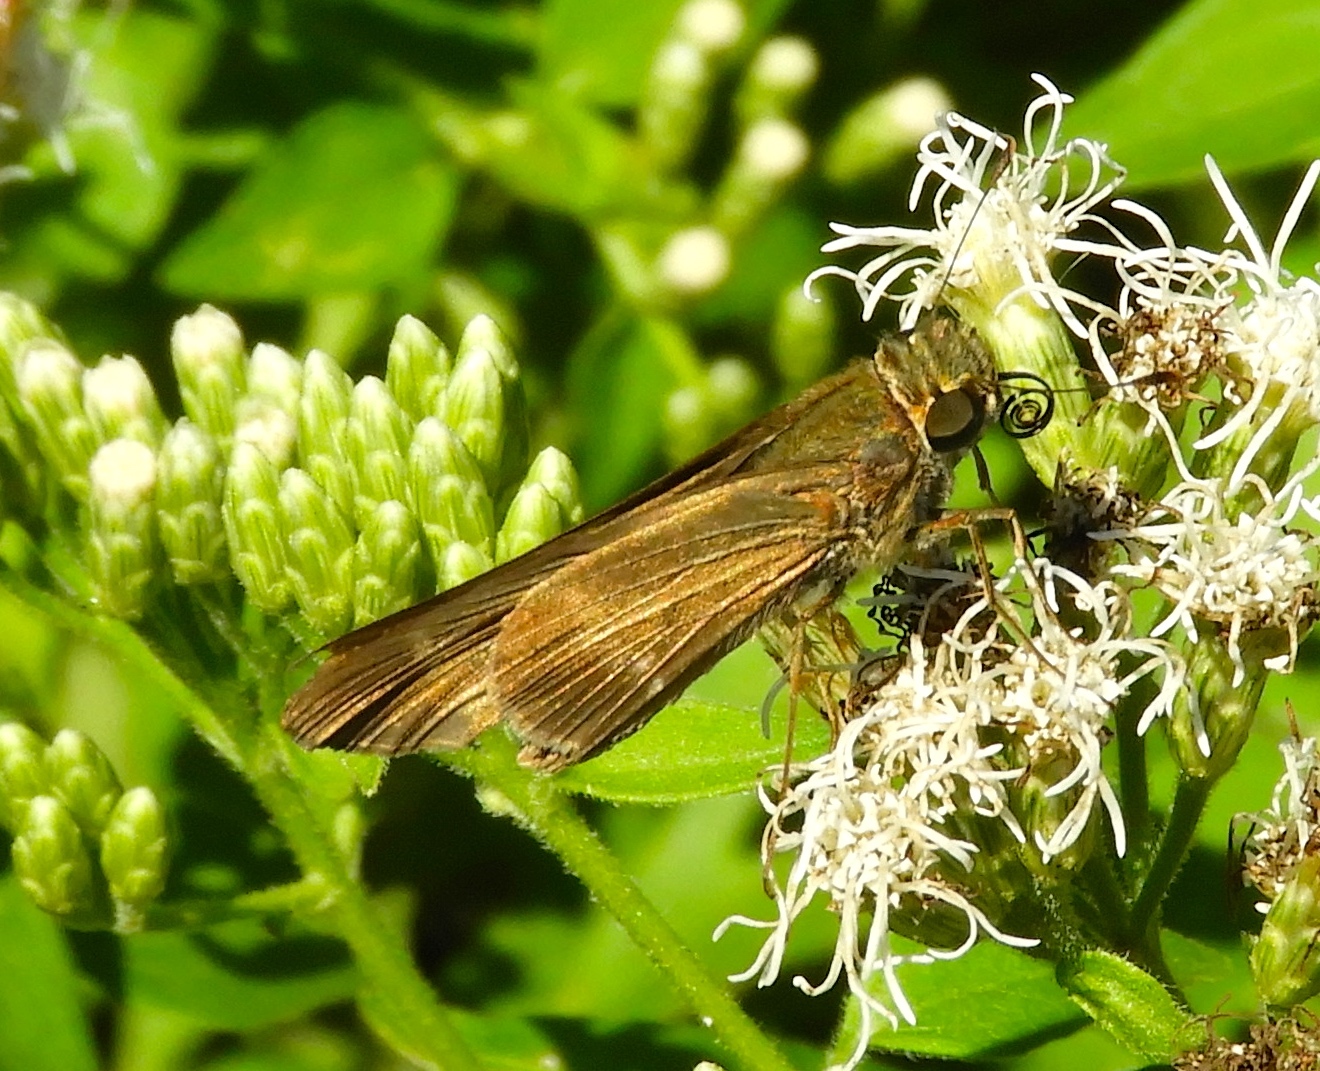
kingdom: Animalia
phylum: Arthropoda
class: Insecta
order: Lepidoptera
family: Hesperiidae
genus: Panoquina
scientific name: Panoquina fusina
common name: Evans' skipper
